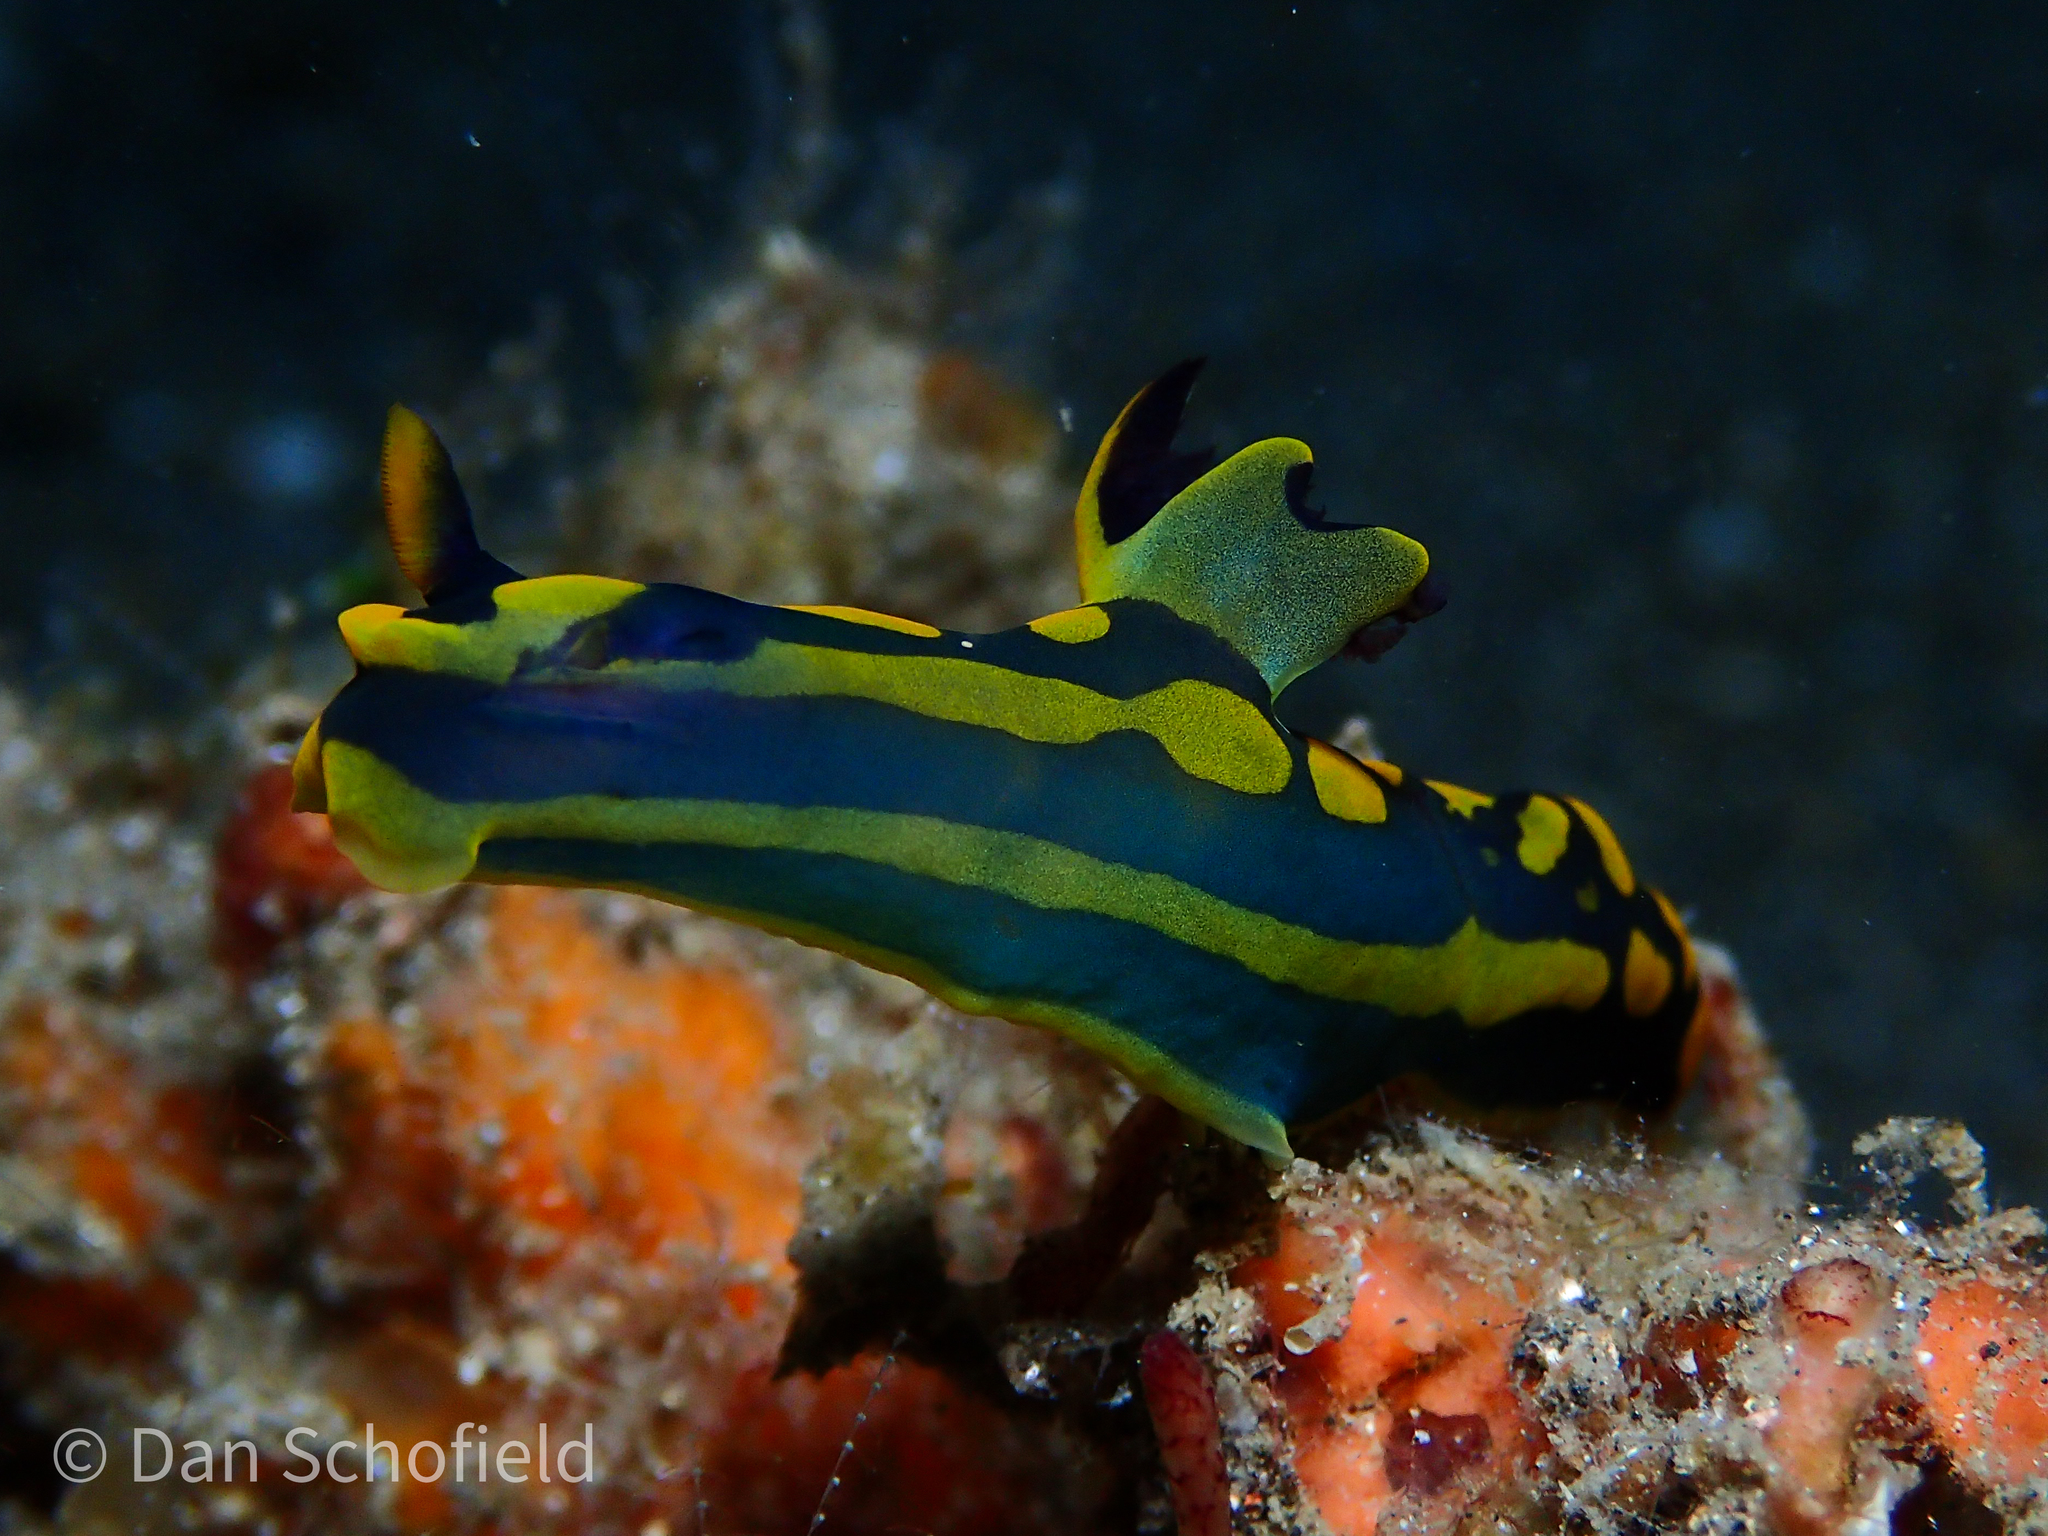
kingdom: Animalia
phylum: Mollusca
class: Gastropoda
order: Nudibranchia
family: Polyceridae
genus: Tambja
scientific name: Tambja gabrielae
